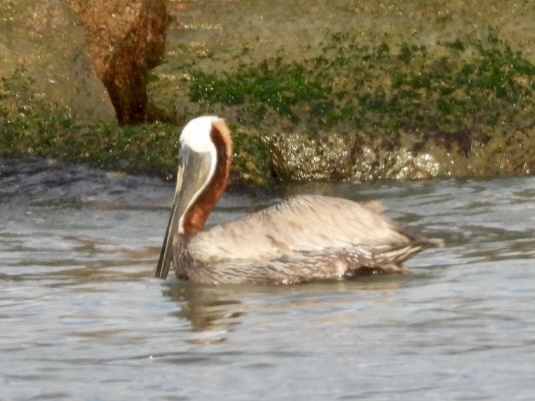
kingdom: Animalia
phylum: Chordata
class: Aves
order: Pelecaniformes
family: Pelecanidae
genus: Pelecanus
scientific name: Pelecanus occidentalis
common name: Brown pelican
